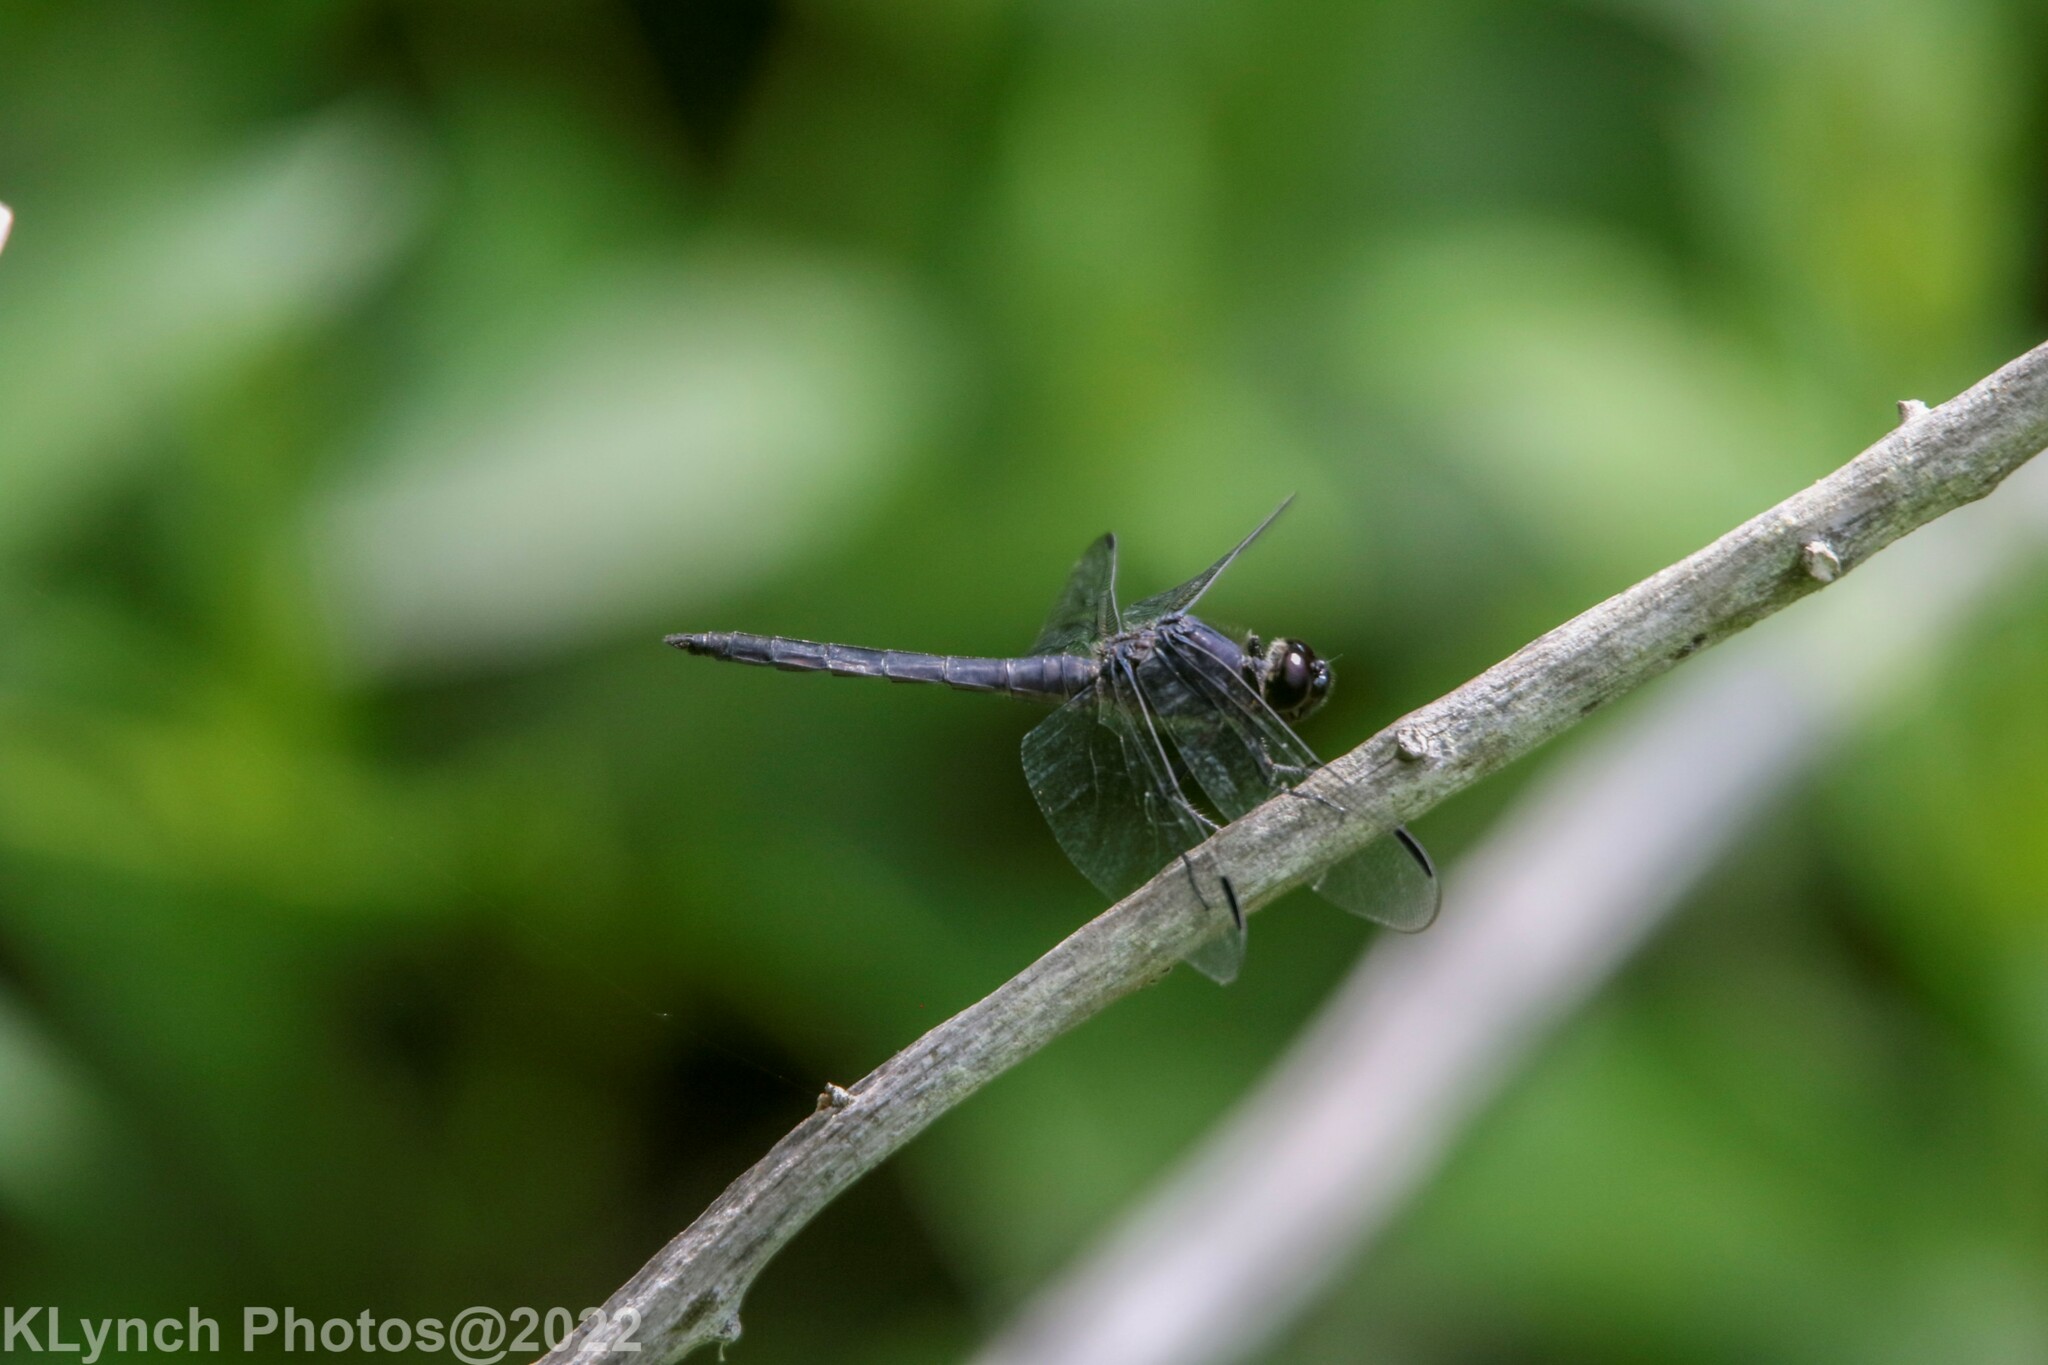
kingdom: Animalia
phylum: Arthropoda
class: Insecta
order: Odonata
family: Libellulidae
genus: Libellula
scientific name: Libellula incesta
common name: Slaty skimmer
